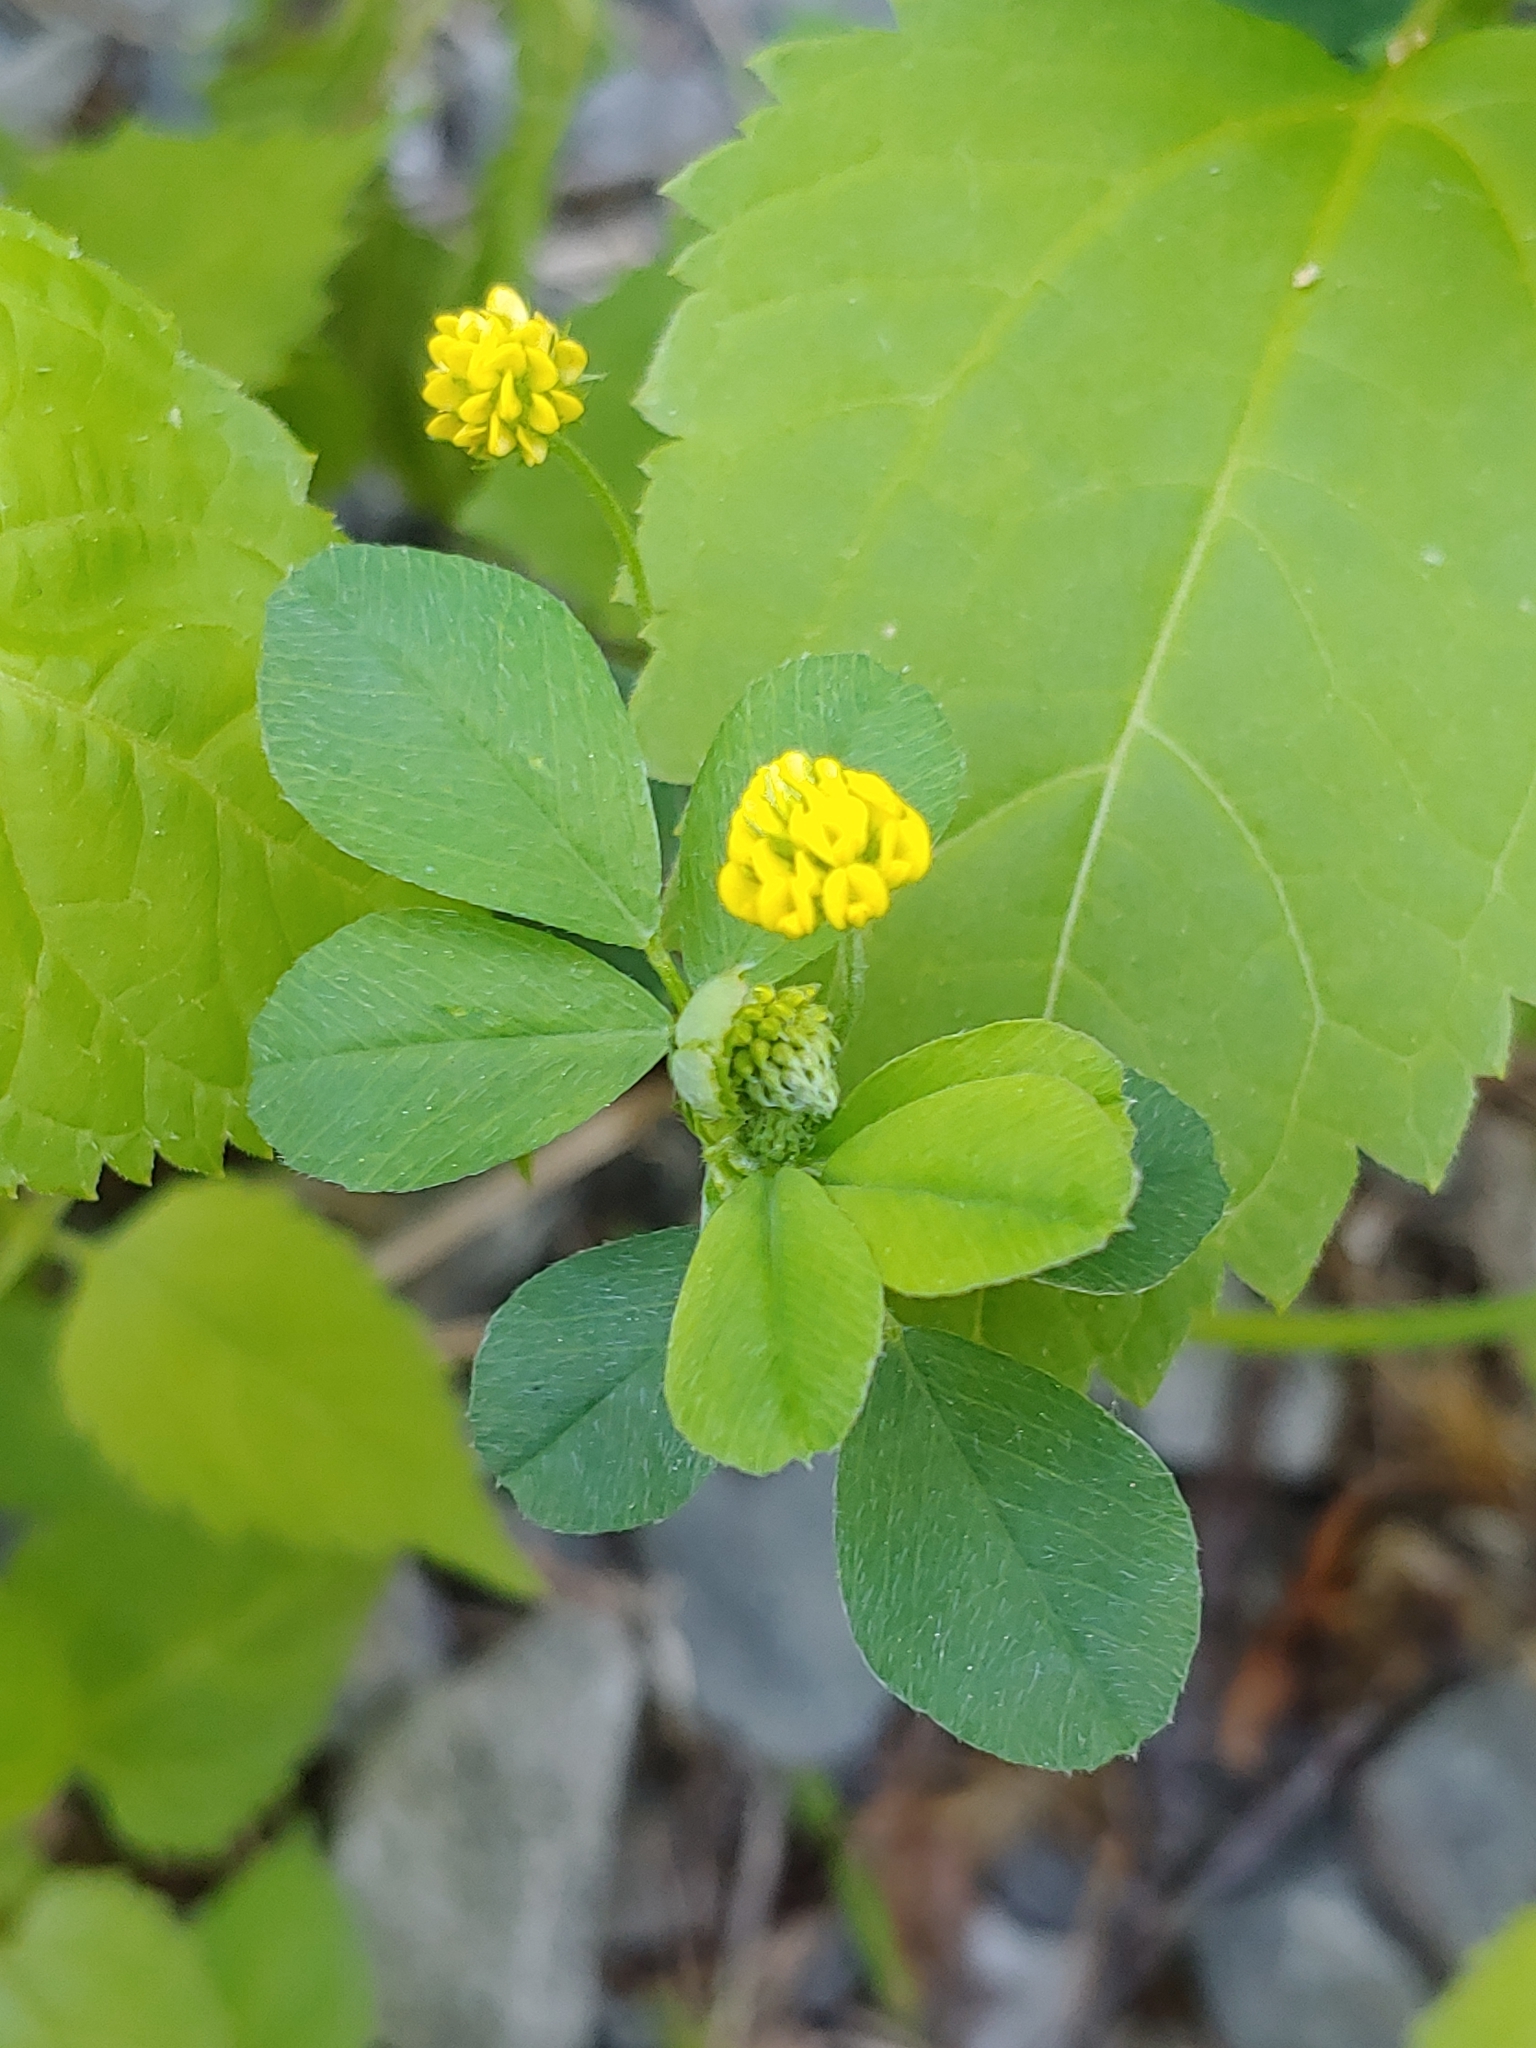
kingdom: Plantae
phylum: Tracheophyta
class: Magnoliopsida
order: Fabales
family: Fabaceae
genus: Medicago
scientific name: Medicago lupulina
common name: Black medick
